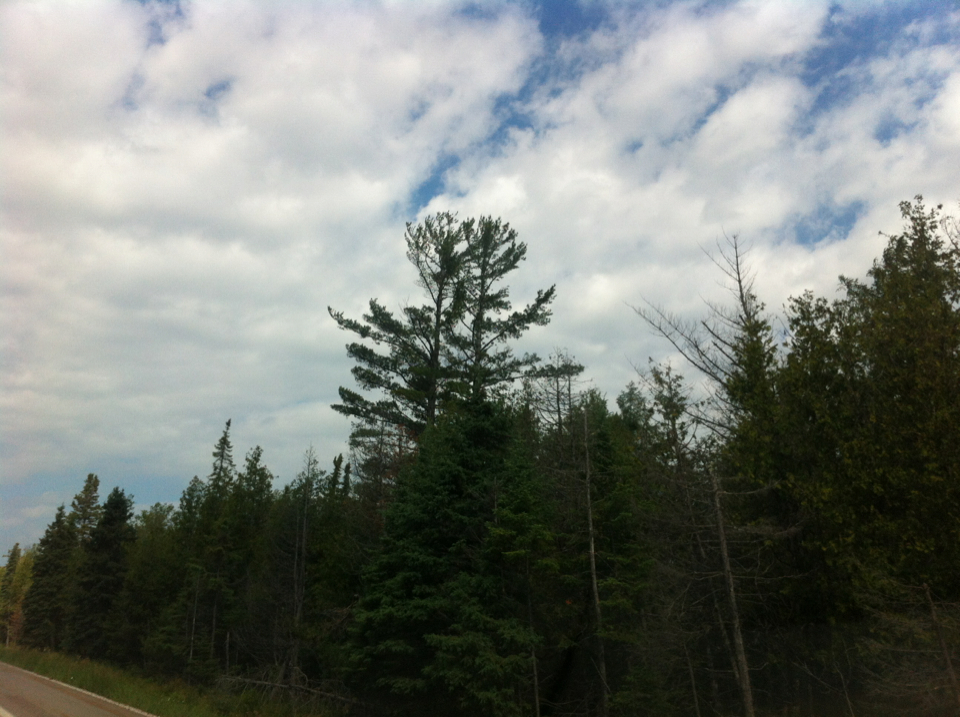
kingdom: Plantae
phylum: Tracheophyta
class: Pinopsida
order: Pinales
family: Pinaceae
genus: Pinus
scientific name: Pinus strobus
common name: Weymouth pine
